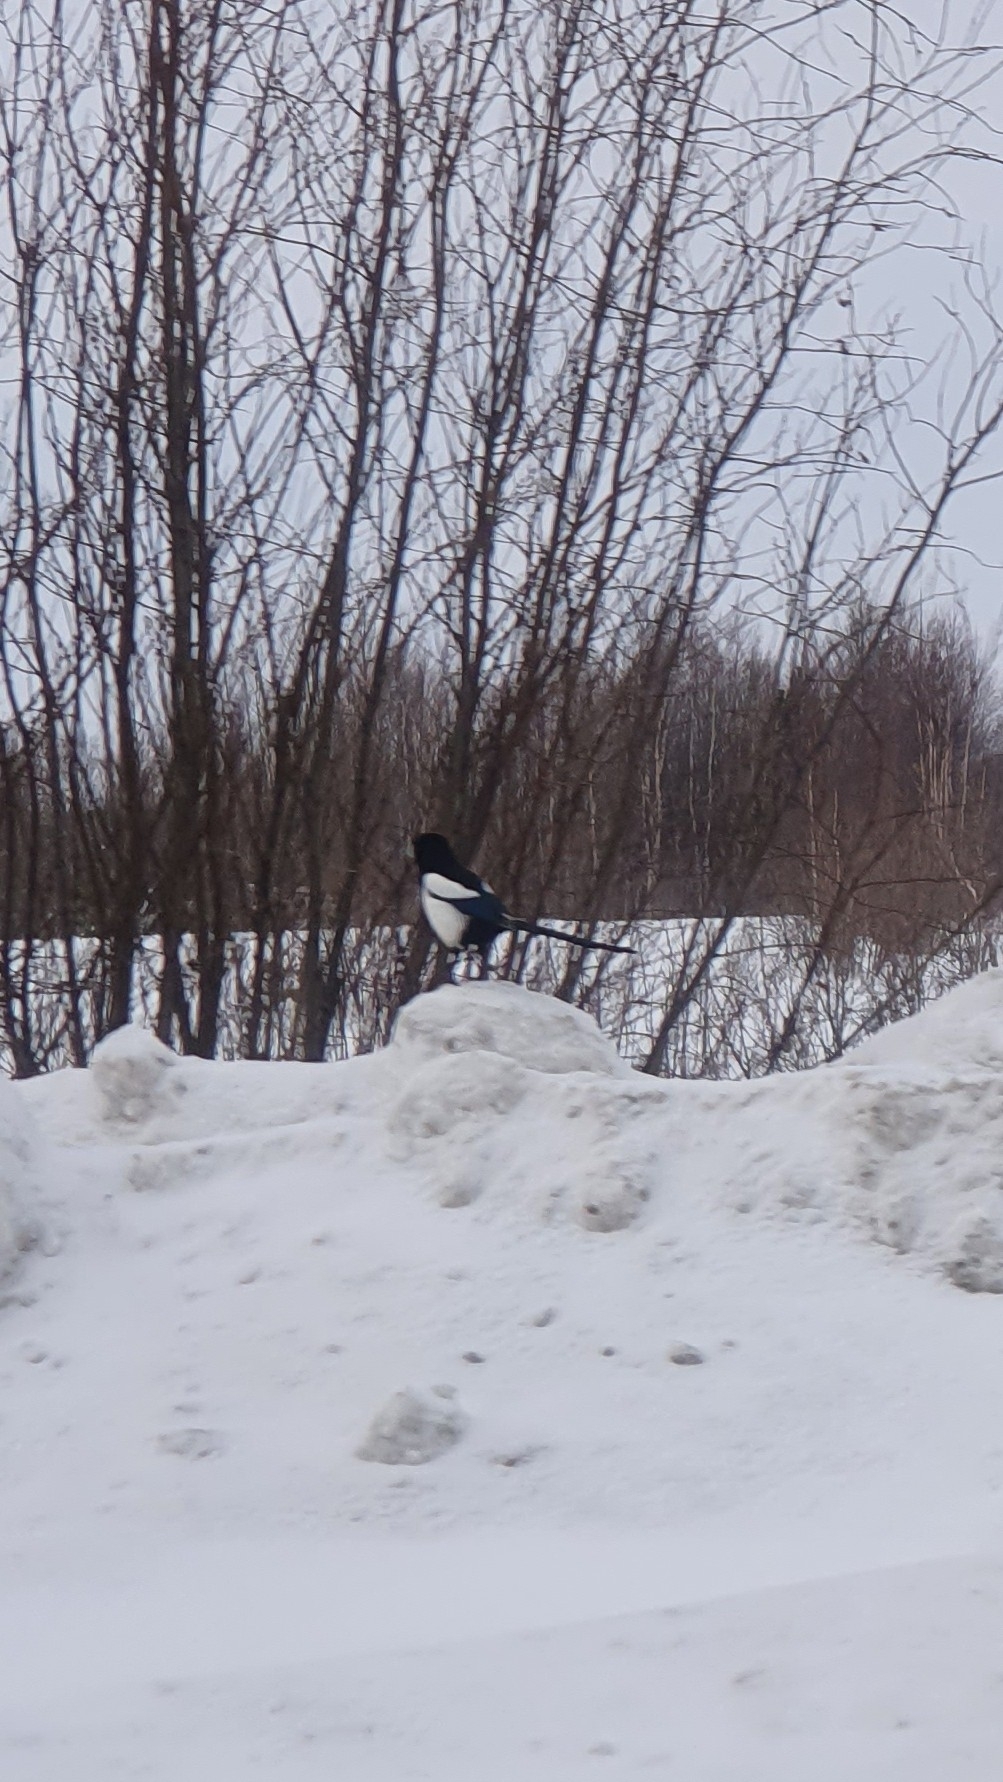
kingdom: Animalia
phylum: Chordata
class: Aves
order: Passeriformes
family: Corvidae
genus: Pica
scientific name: Pica pica
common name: Eurasian magpie
